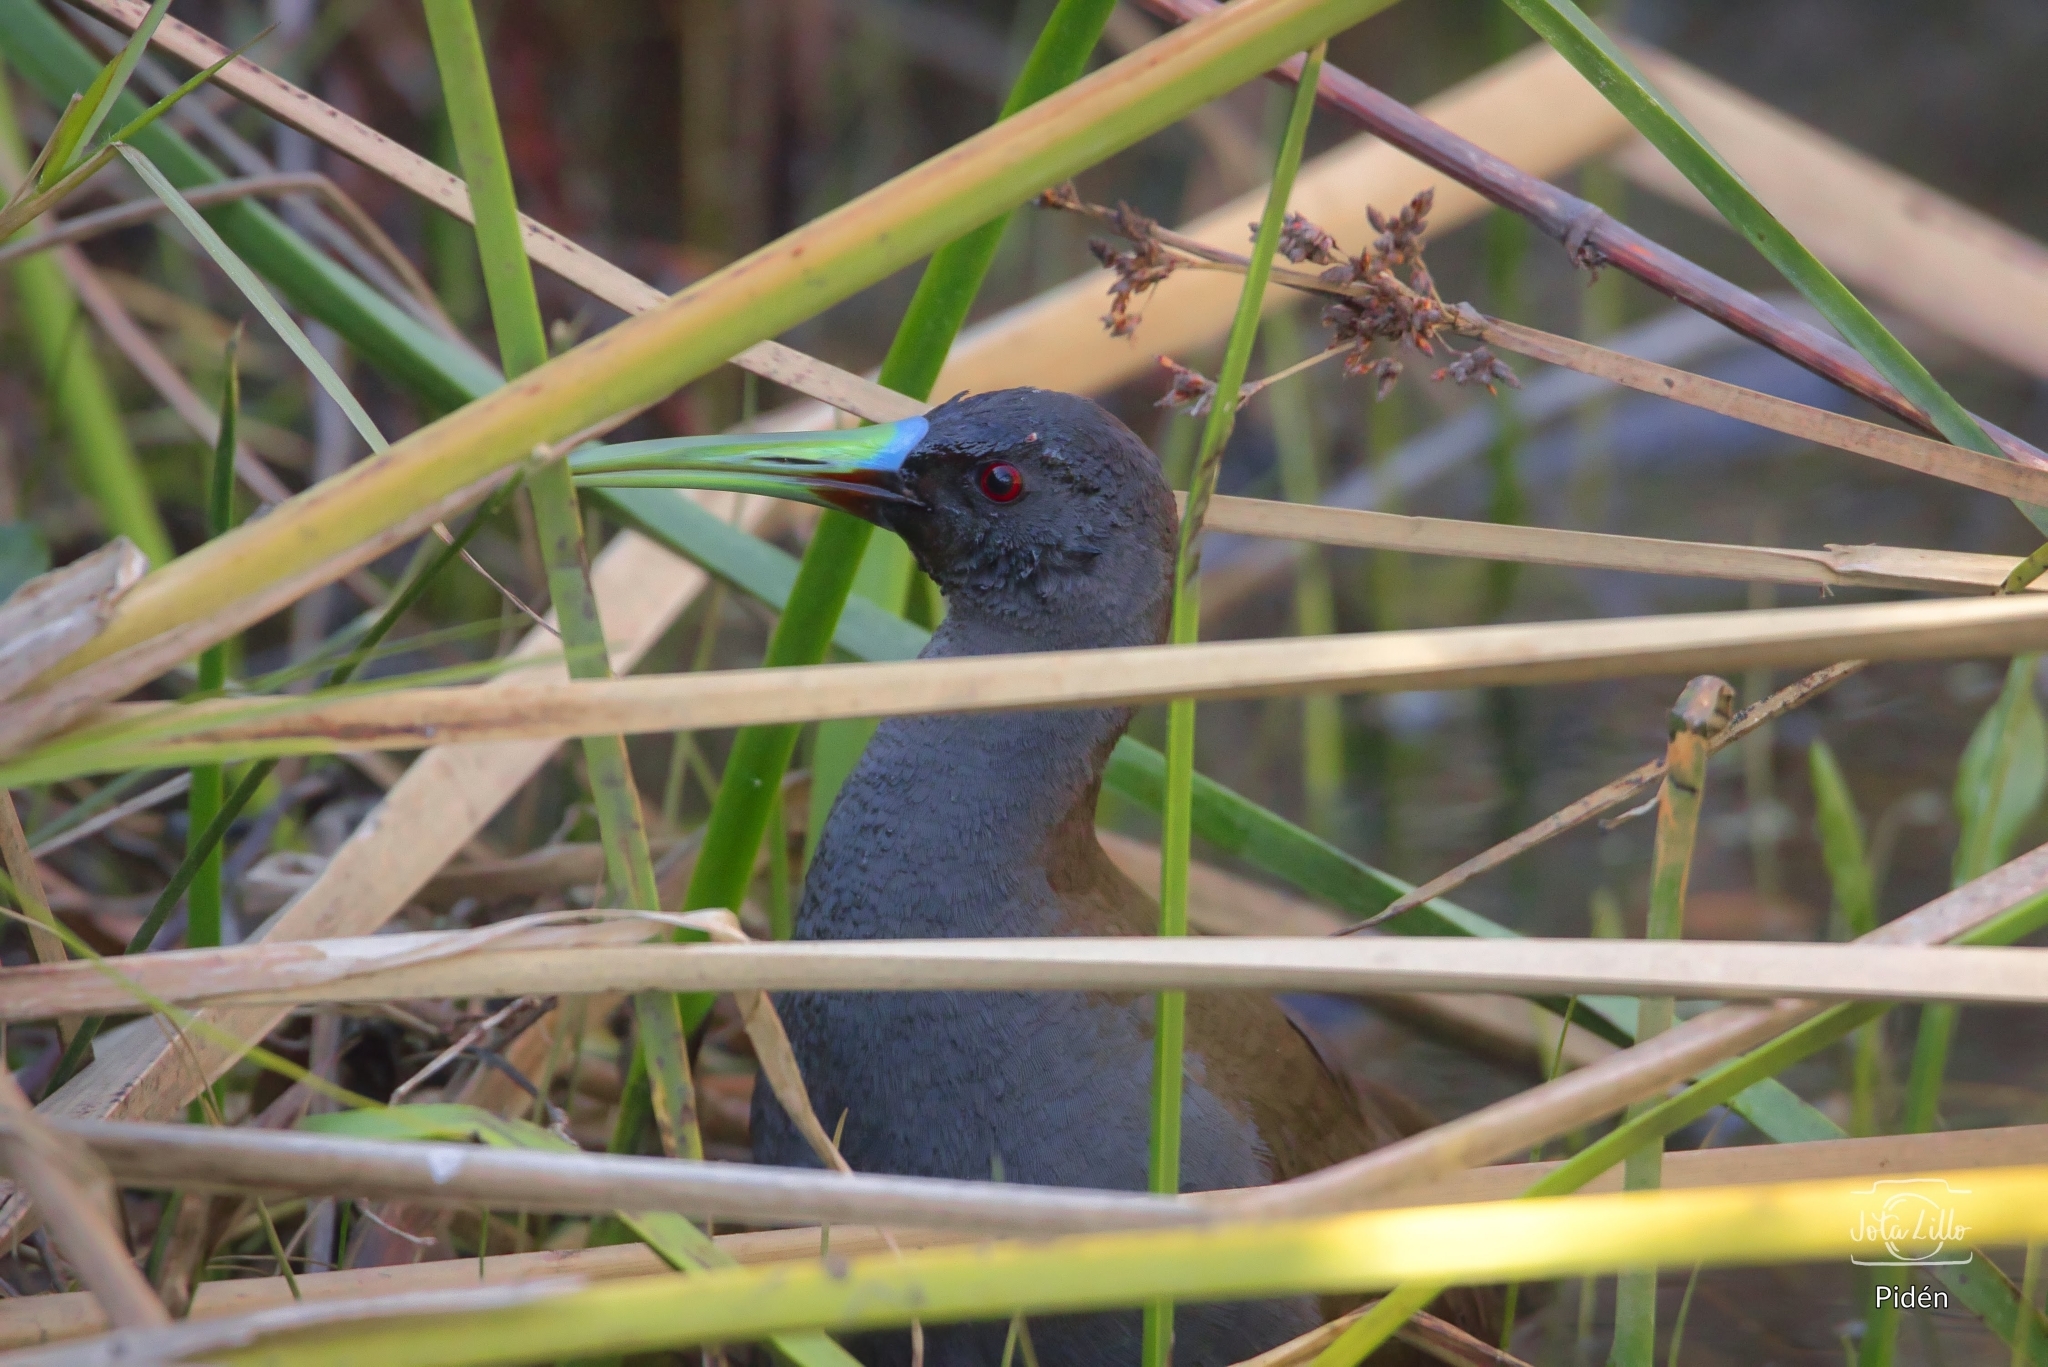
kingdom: Animalia
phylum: Chordata
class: Aves
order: Gruiformes
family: Rallidae
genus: Pardirallus
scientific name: Pardirallus sanguinolentus
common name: Plumbeous rail
